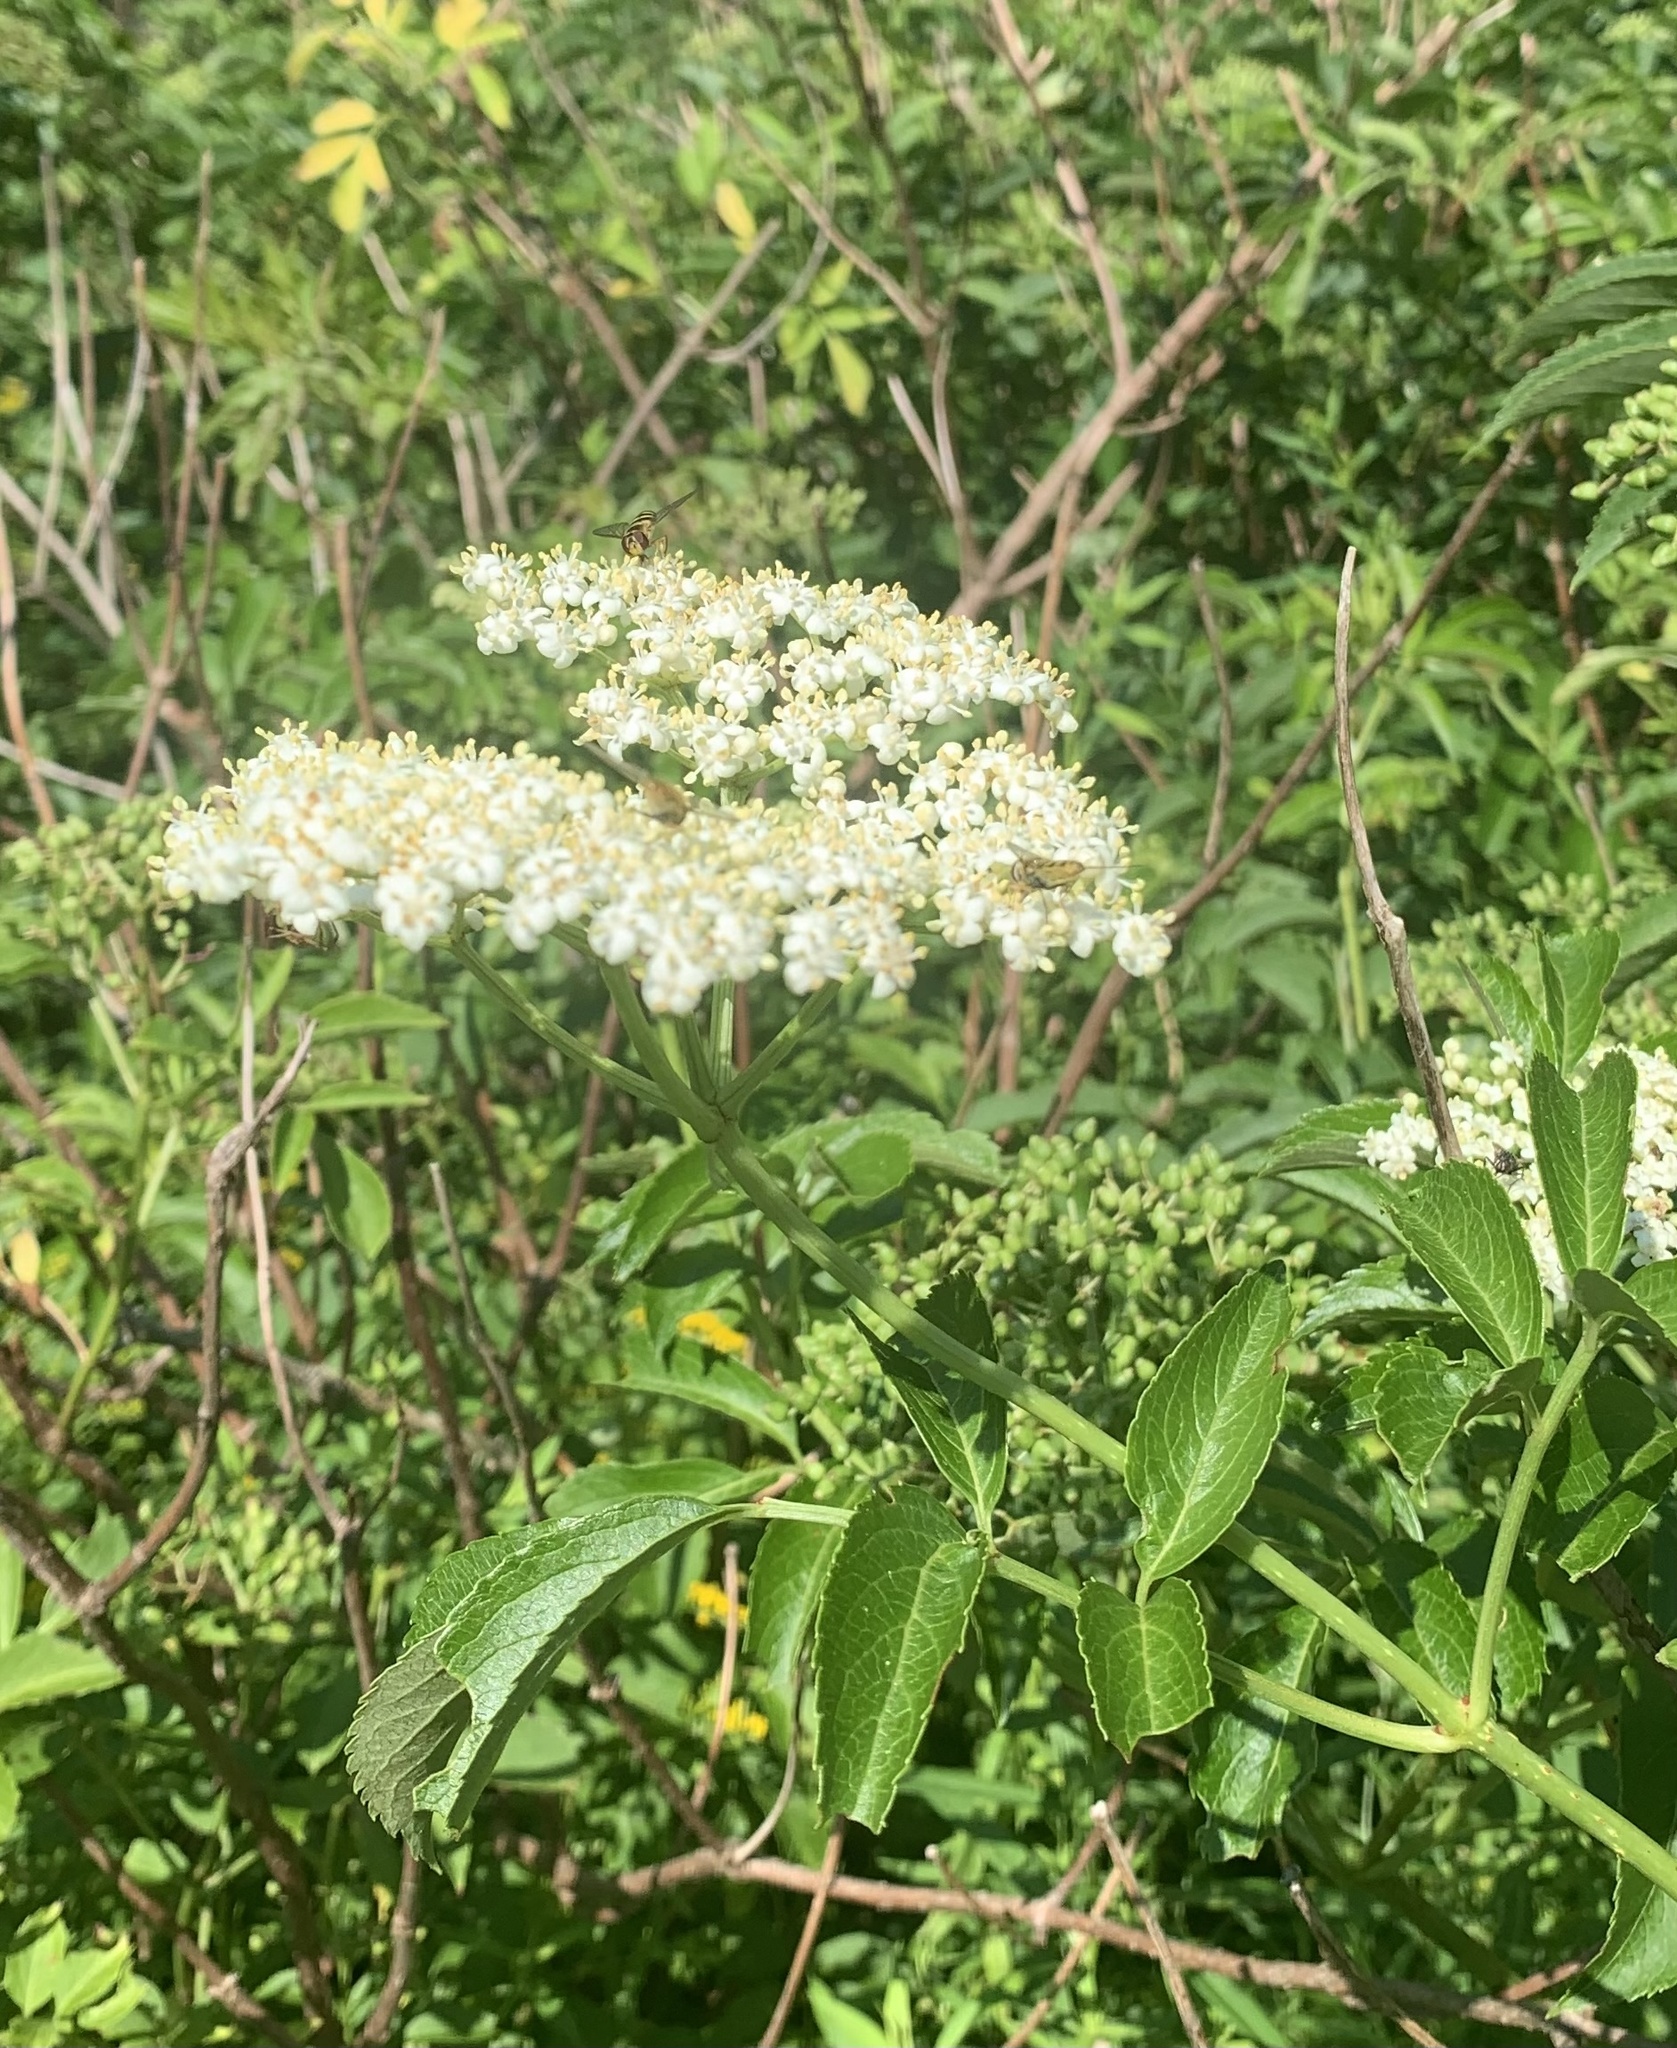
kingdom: Plantae
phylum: Tracheophyta
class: Magnoliopsida
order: Dipsacales
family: Viburnaceae
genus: Sambucus
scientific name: Sambucus canadensis
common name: American elder
